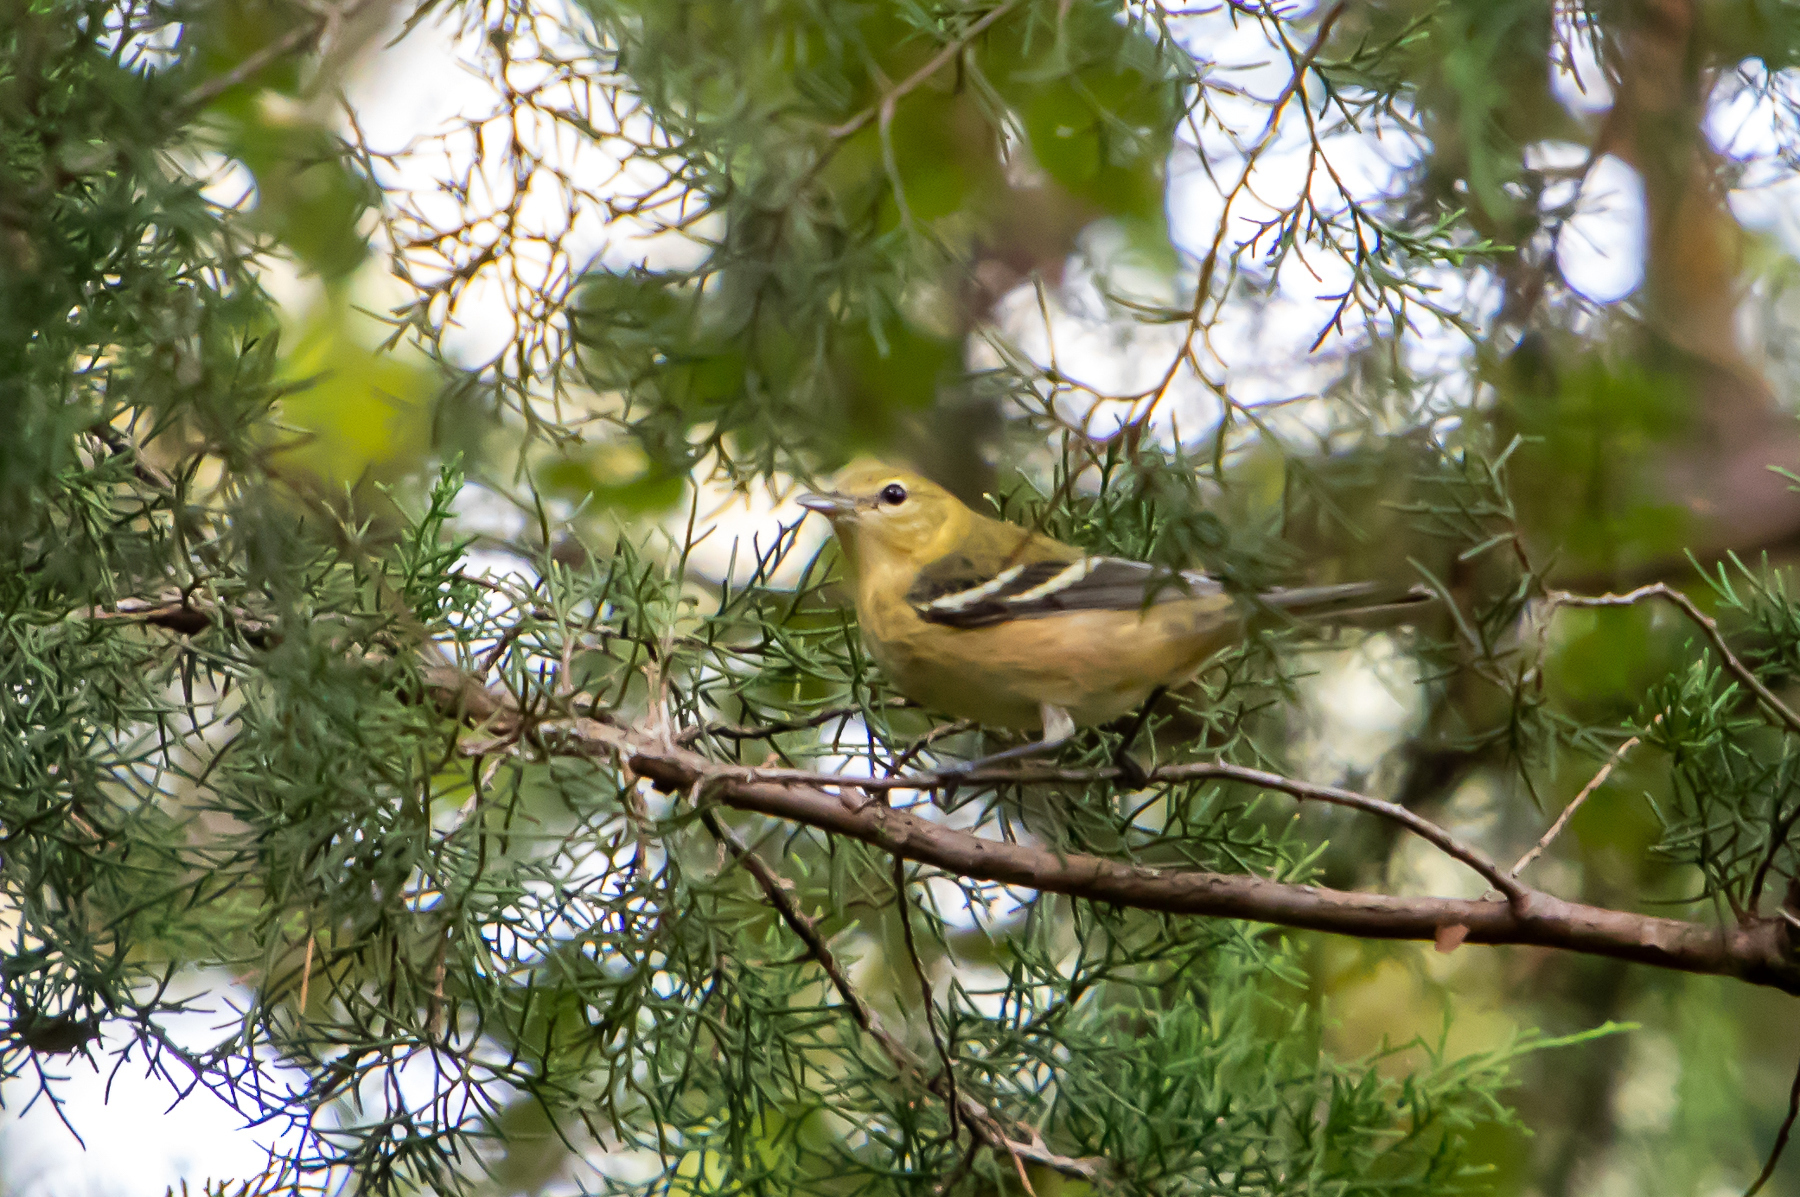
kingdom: Animalia
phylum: Chordata
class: Aves
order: Passeriformes
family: Parulidae
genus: Setophaga
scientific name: Setophaga castanea
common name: Bay-breasted warbler
